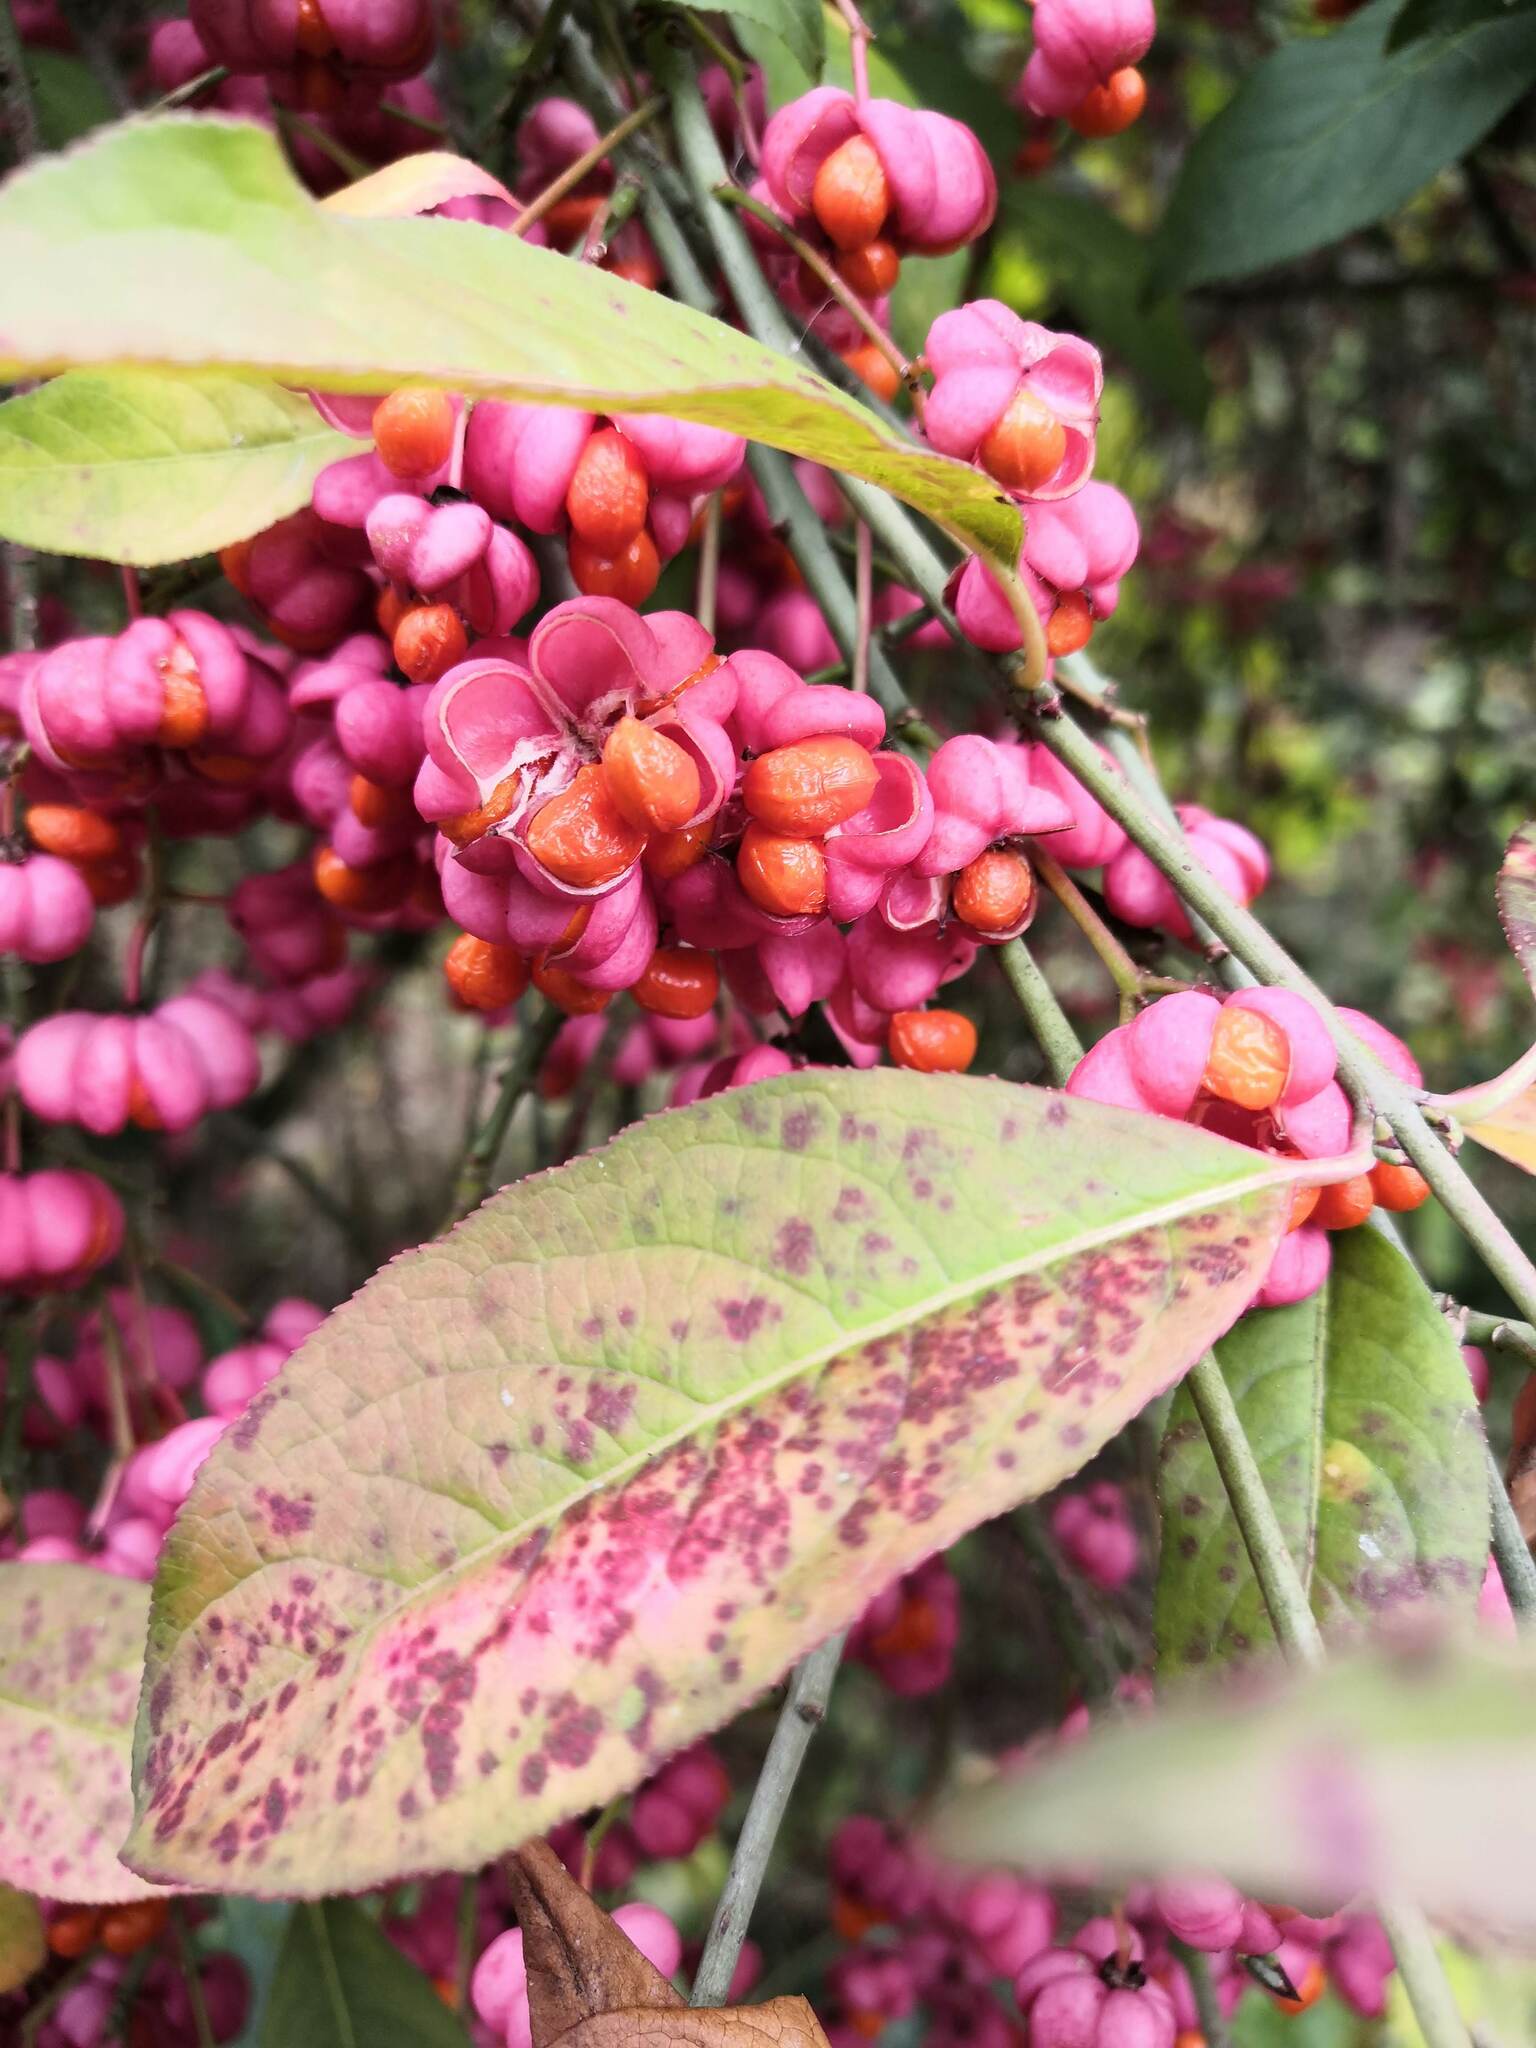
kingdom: Plantae
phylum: Tracheophyta
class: Magnoliopsida
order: Celastrales
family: Celastraceae
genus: Euonymus
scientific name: Euonymus europaeus
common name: Spindle
